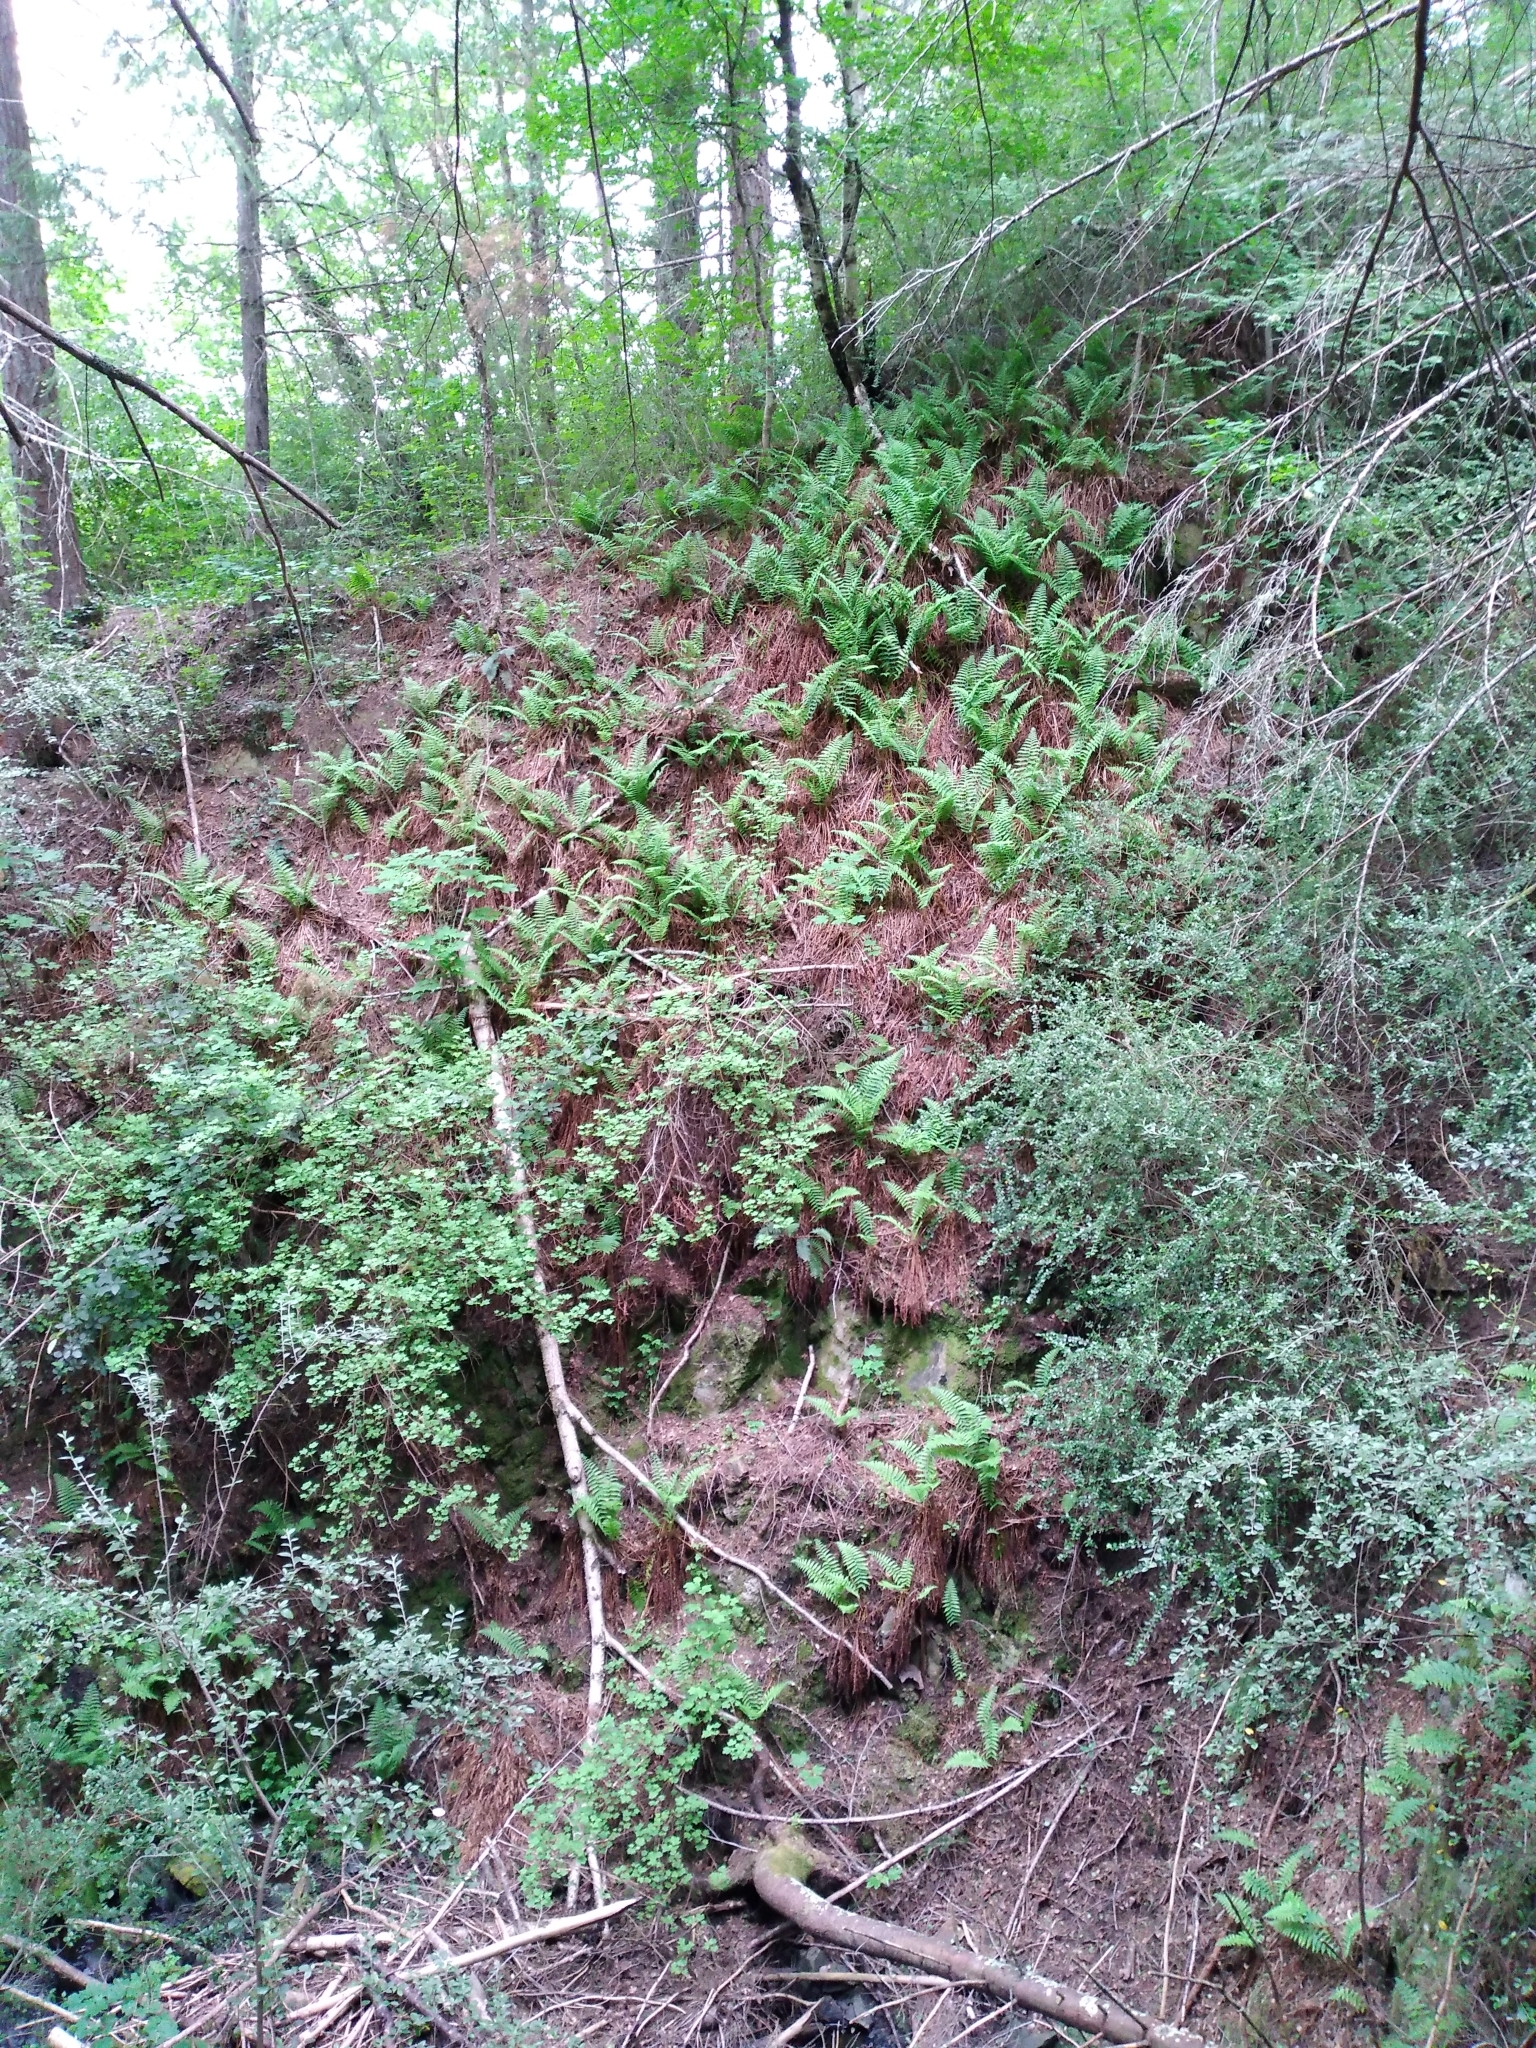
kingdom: Plantae
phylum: Tracheophyta
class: Polypodiopsida
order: Polypodiales
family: Dryopteridaceae
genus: Dryopteris
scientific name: Dryopteris filix-mas
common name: Male fern
